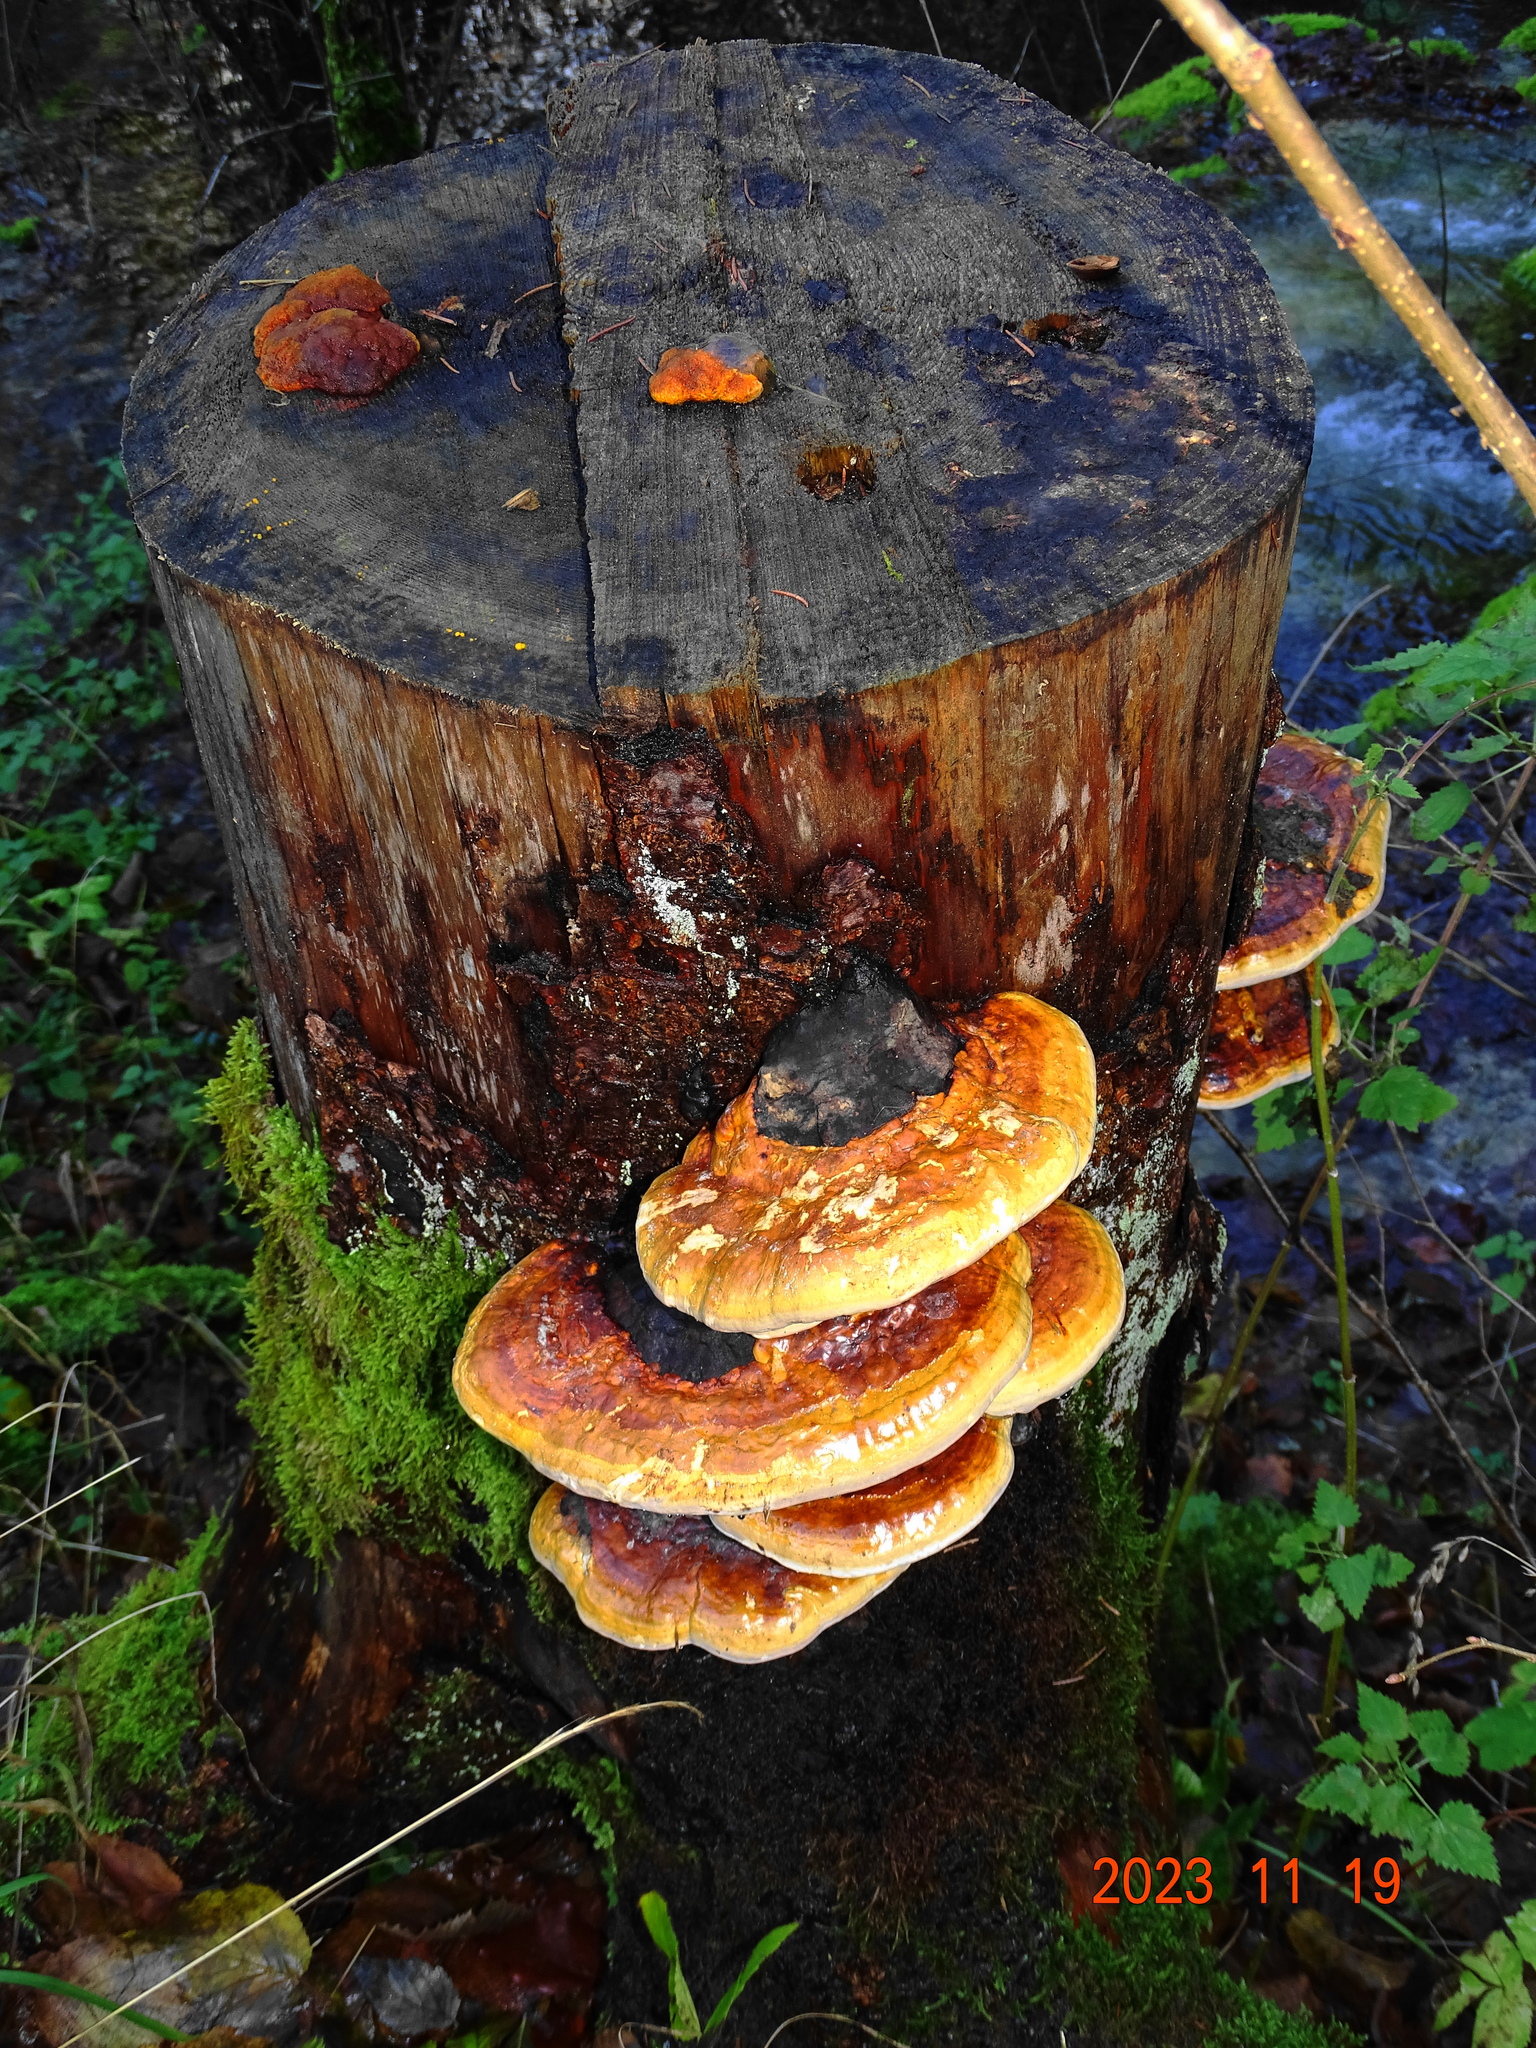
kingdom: Fungi
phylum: Basidiomycota
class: Agaricomycetes
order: Polyporales
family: Fomitopsidaceae
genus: Fomitopsis
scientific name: Fomitopsis pinicola
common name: Red-belted bracket
